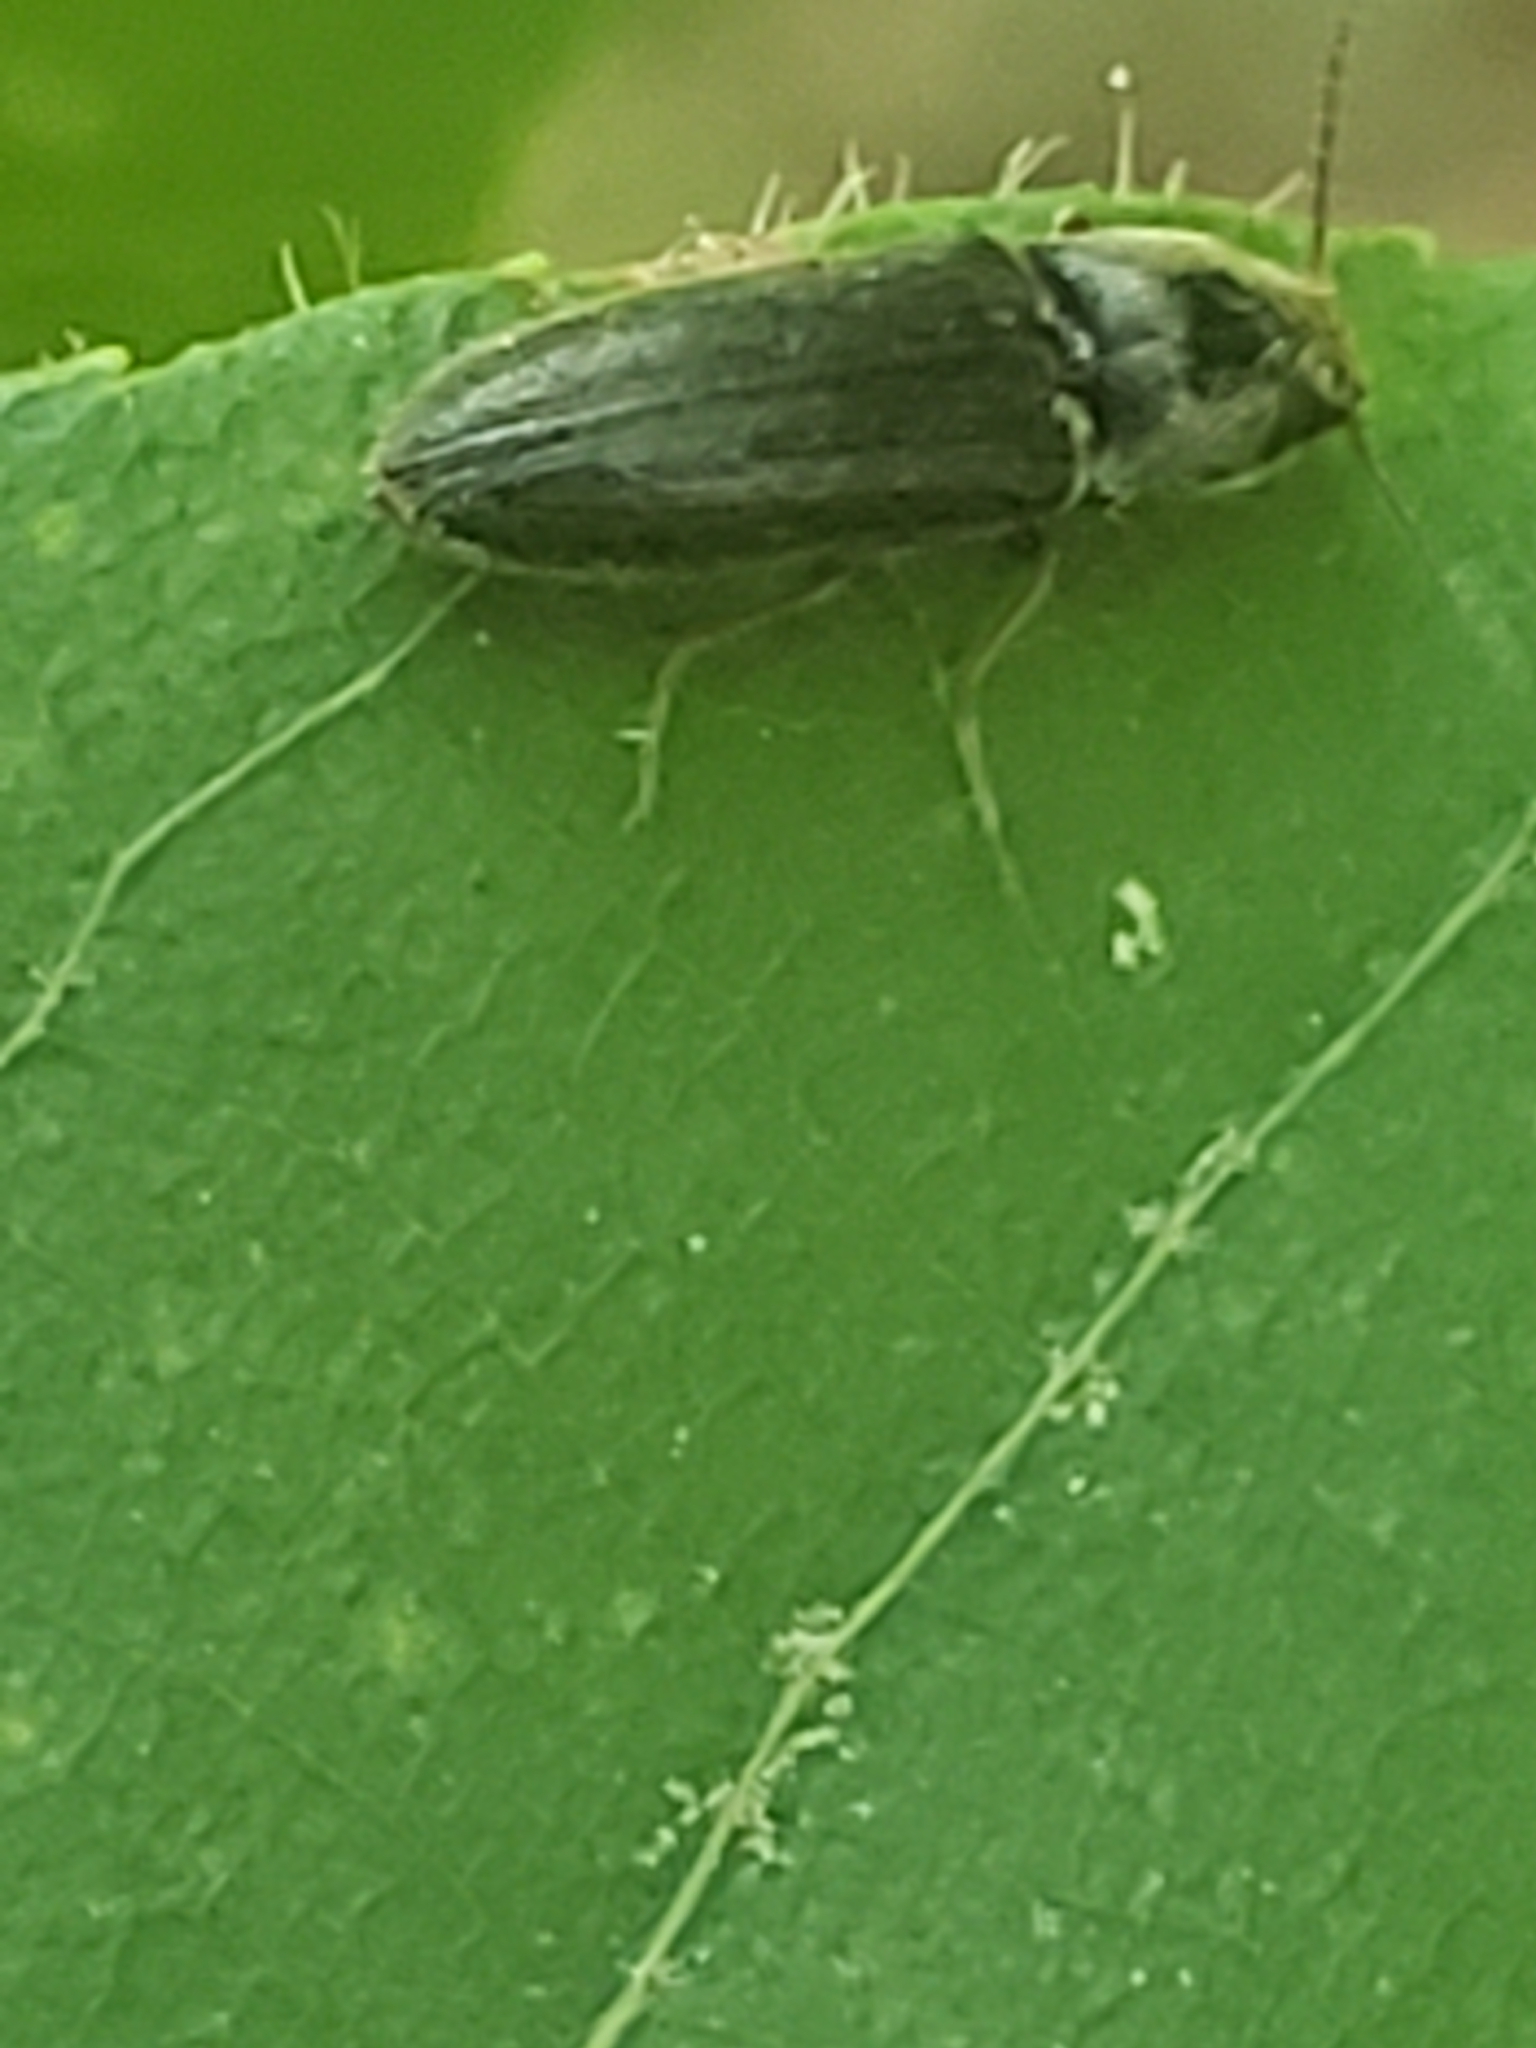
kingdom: Animalia
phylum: Arthropoda
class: Insecta
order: Coleoptera
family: Elateridae
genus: Limonius
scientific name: Limonius quercinus
